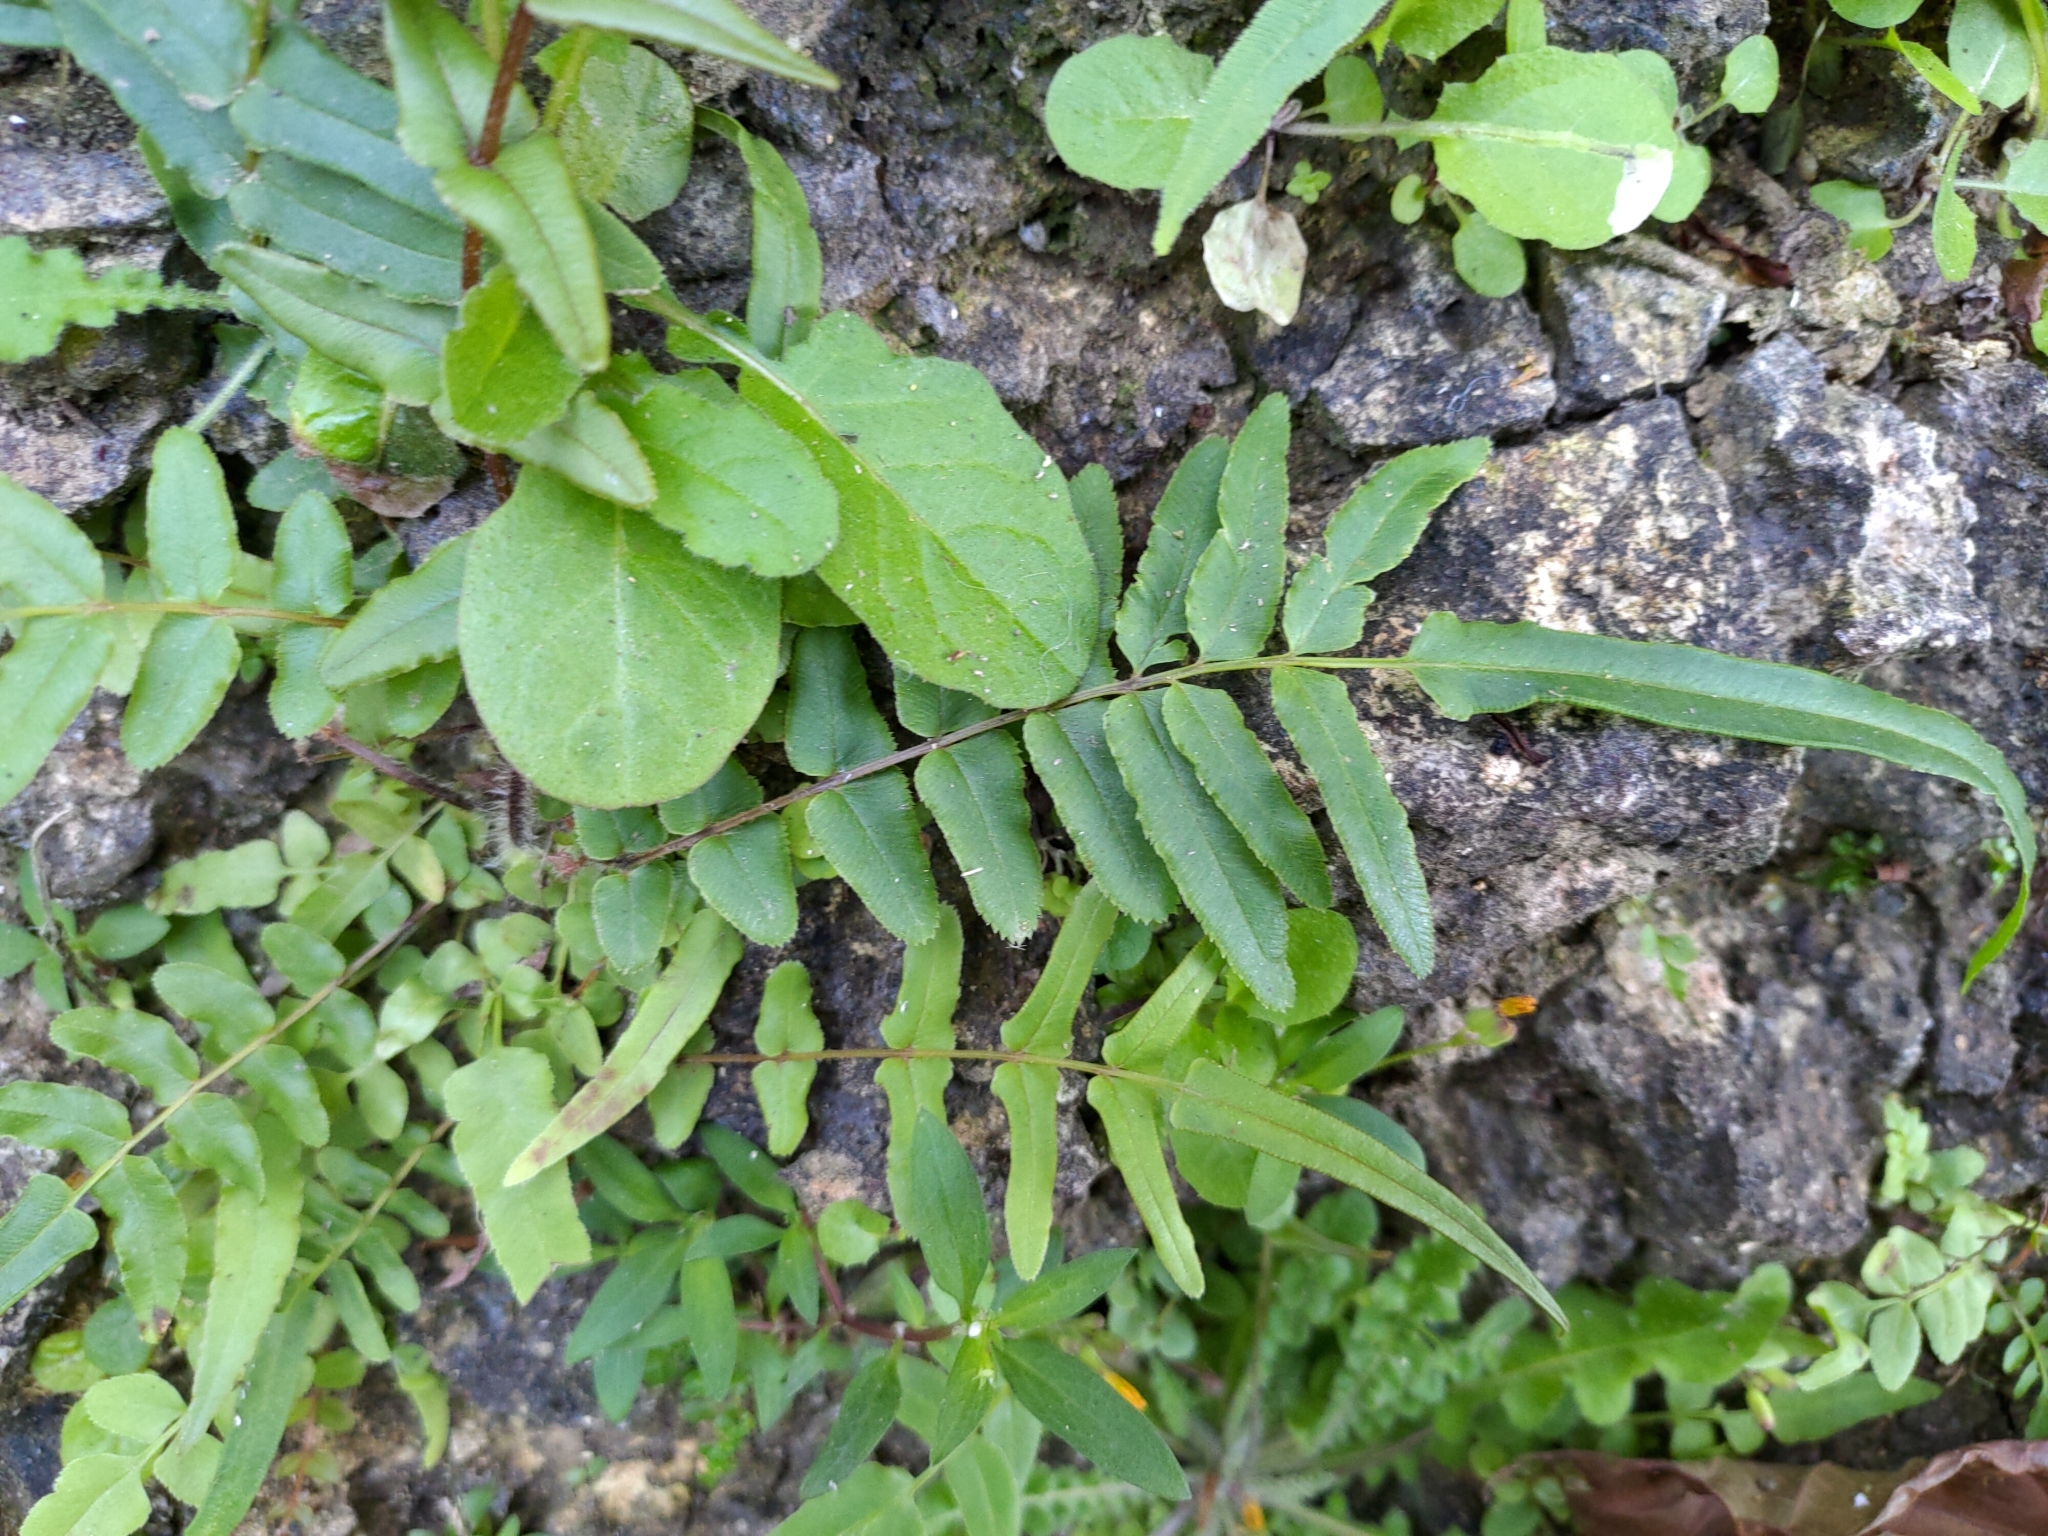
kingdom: Plantae
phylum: Tracheophyta
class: Polypodiopsida
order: Polypodiales
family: Pteridaceae
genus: Pteris
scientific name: Pteris vittata
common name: Ladder brake
